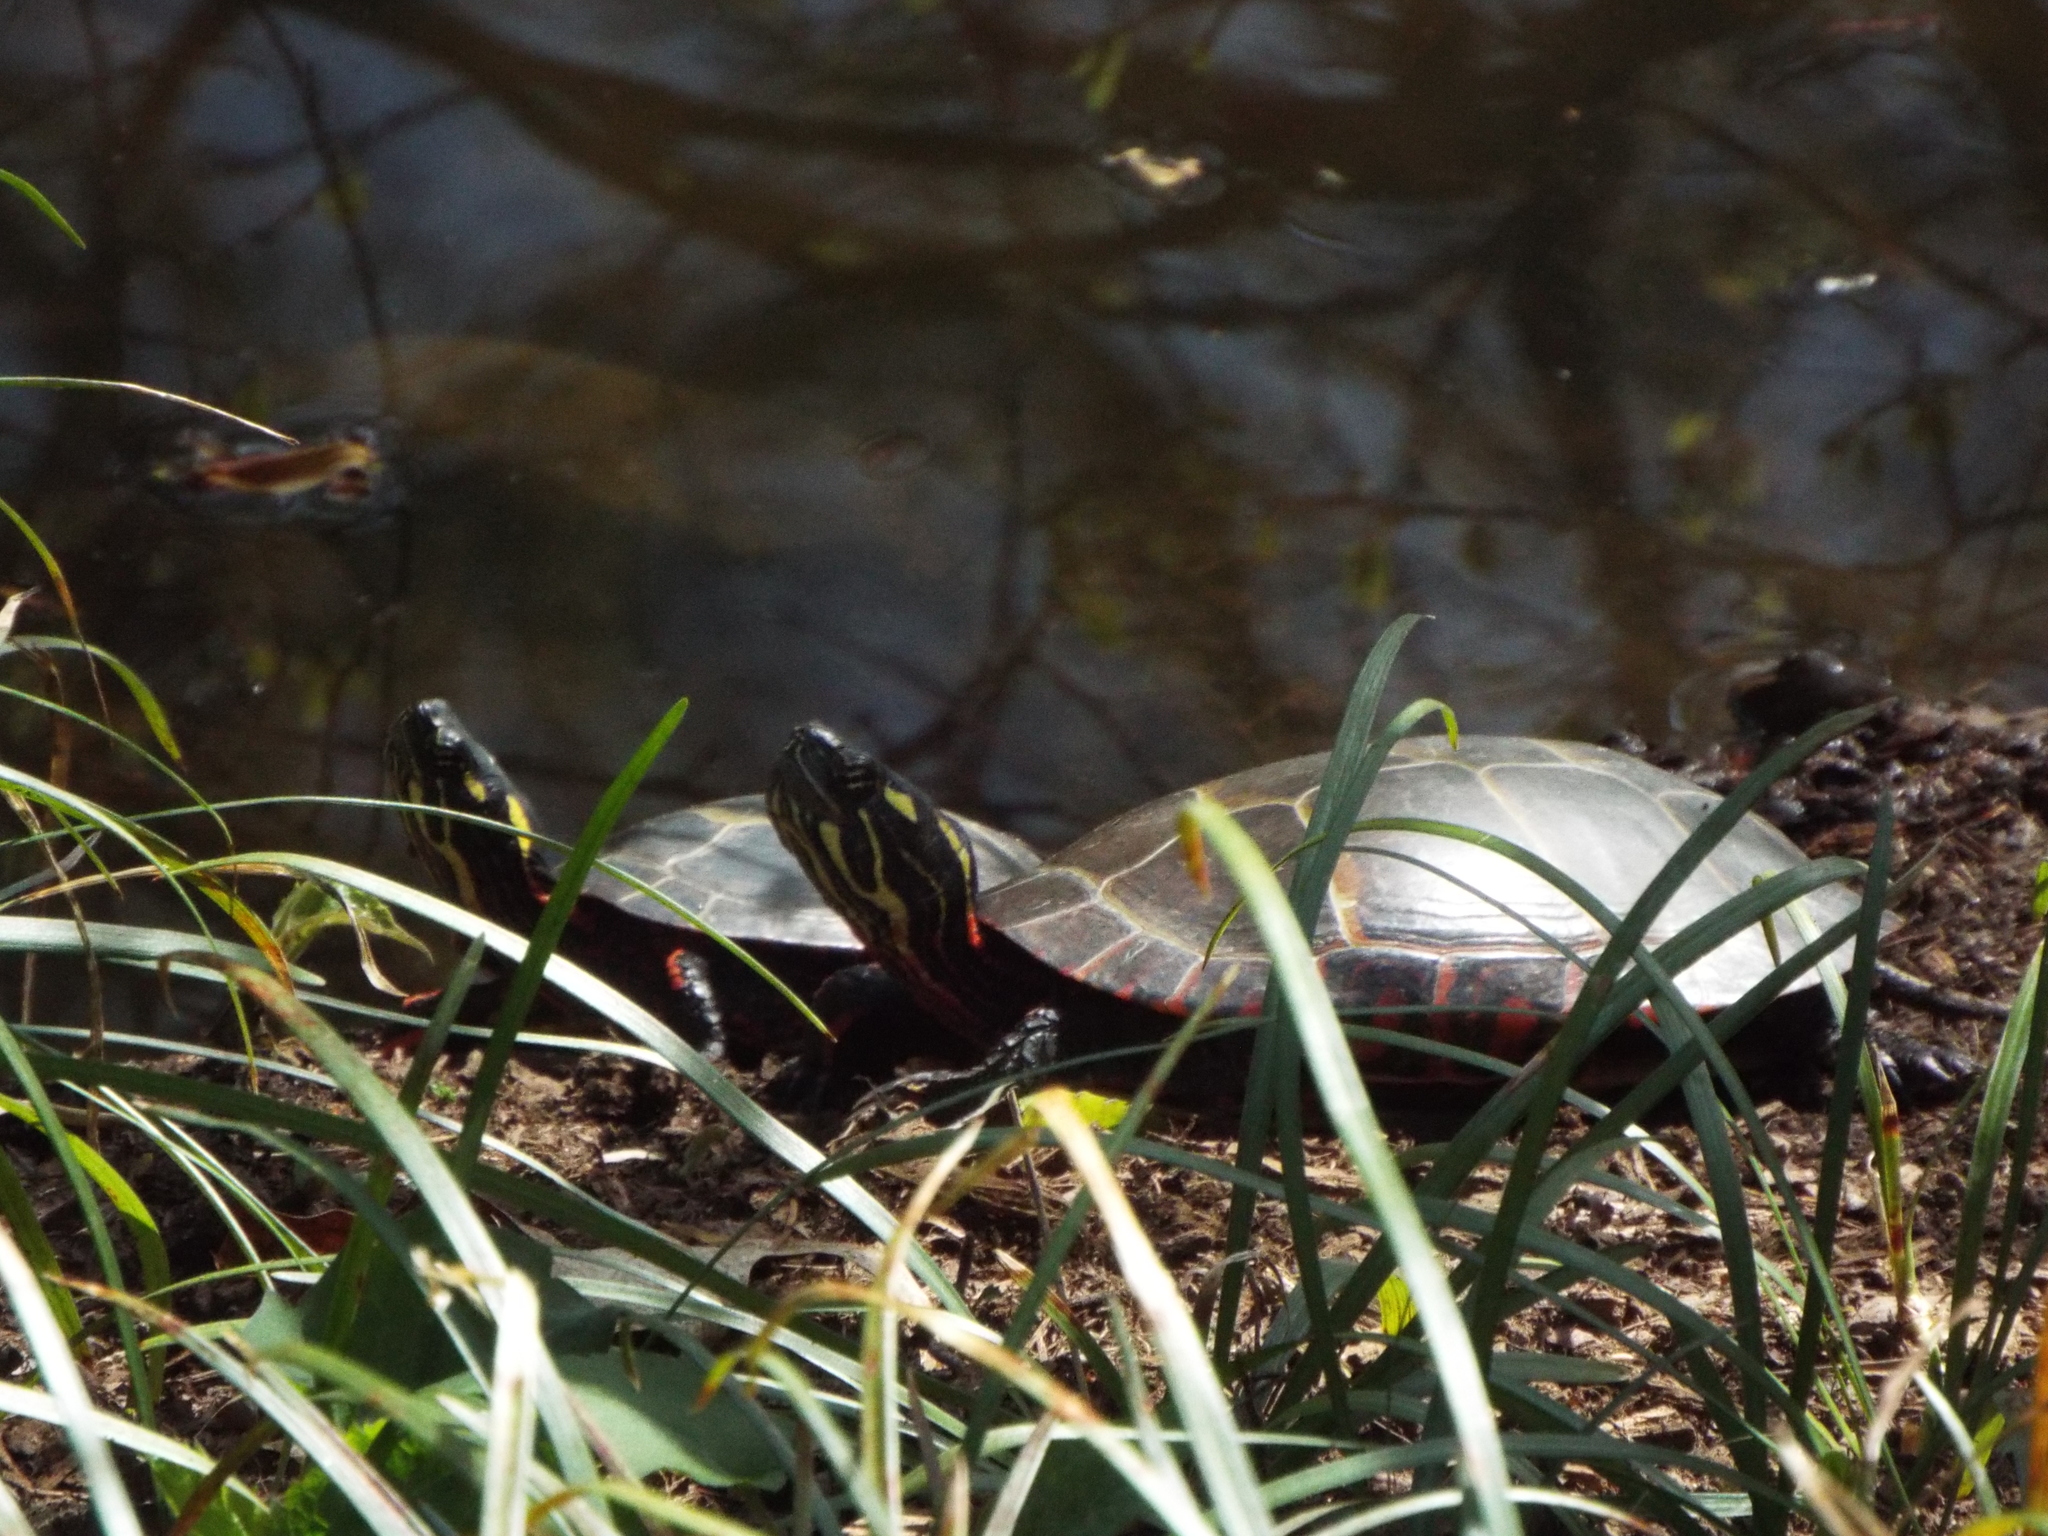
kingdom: Animalia
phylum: Chordata
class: Testudines
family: Emydidae
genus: Chrysemys
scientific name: Chrysemys picta
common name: Painted turtle
